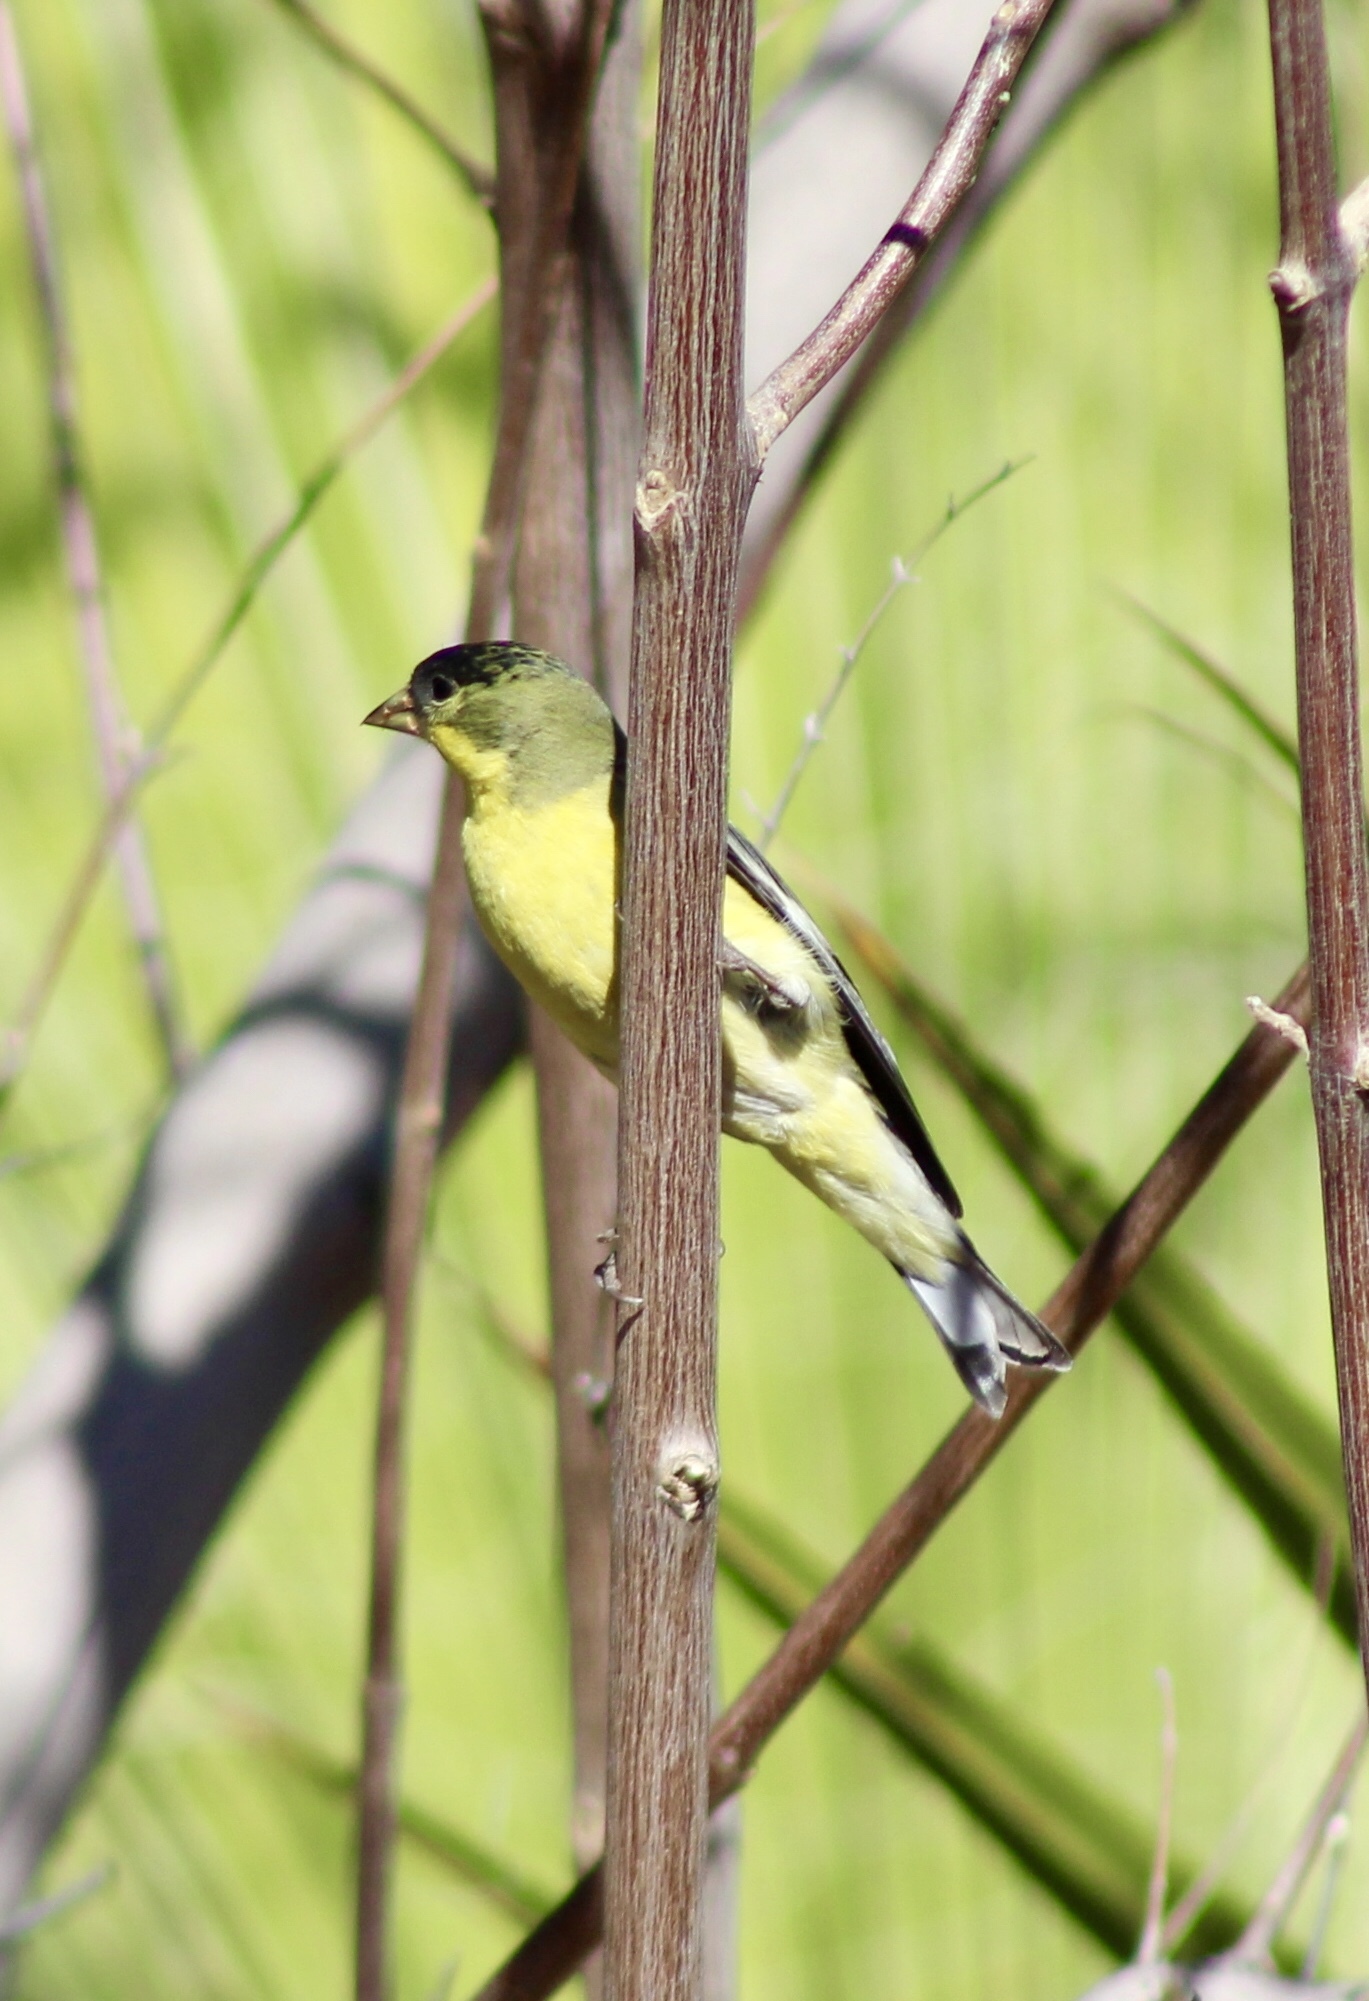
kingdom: Animalia
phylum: Chordata
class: Aves
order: Passeriformes
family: Fringillidae
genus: Spinus
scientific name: Spinus psaltria
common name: Lesser goldfinch
